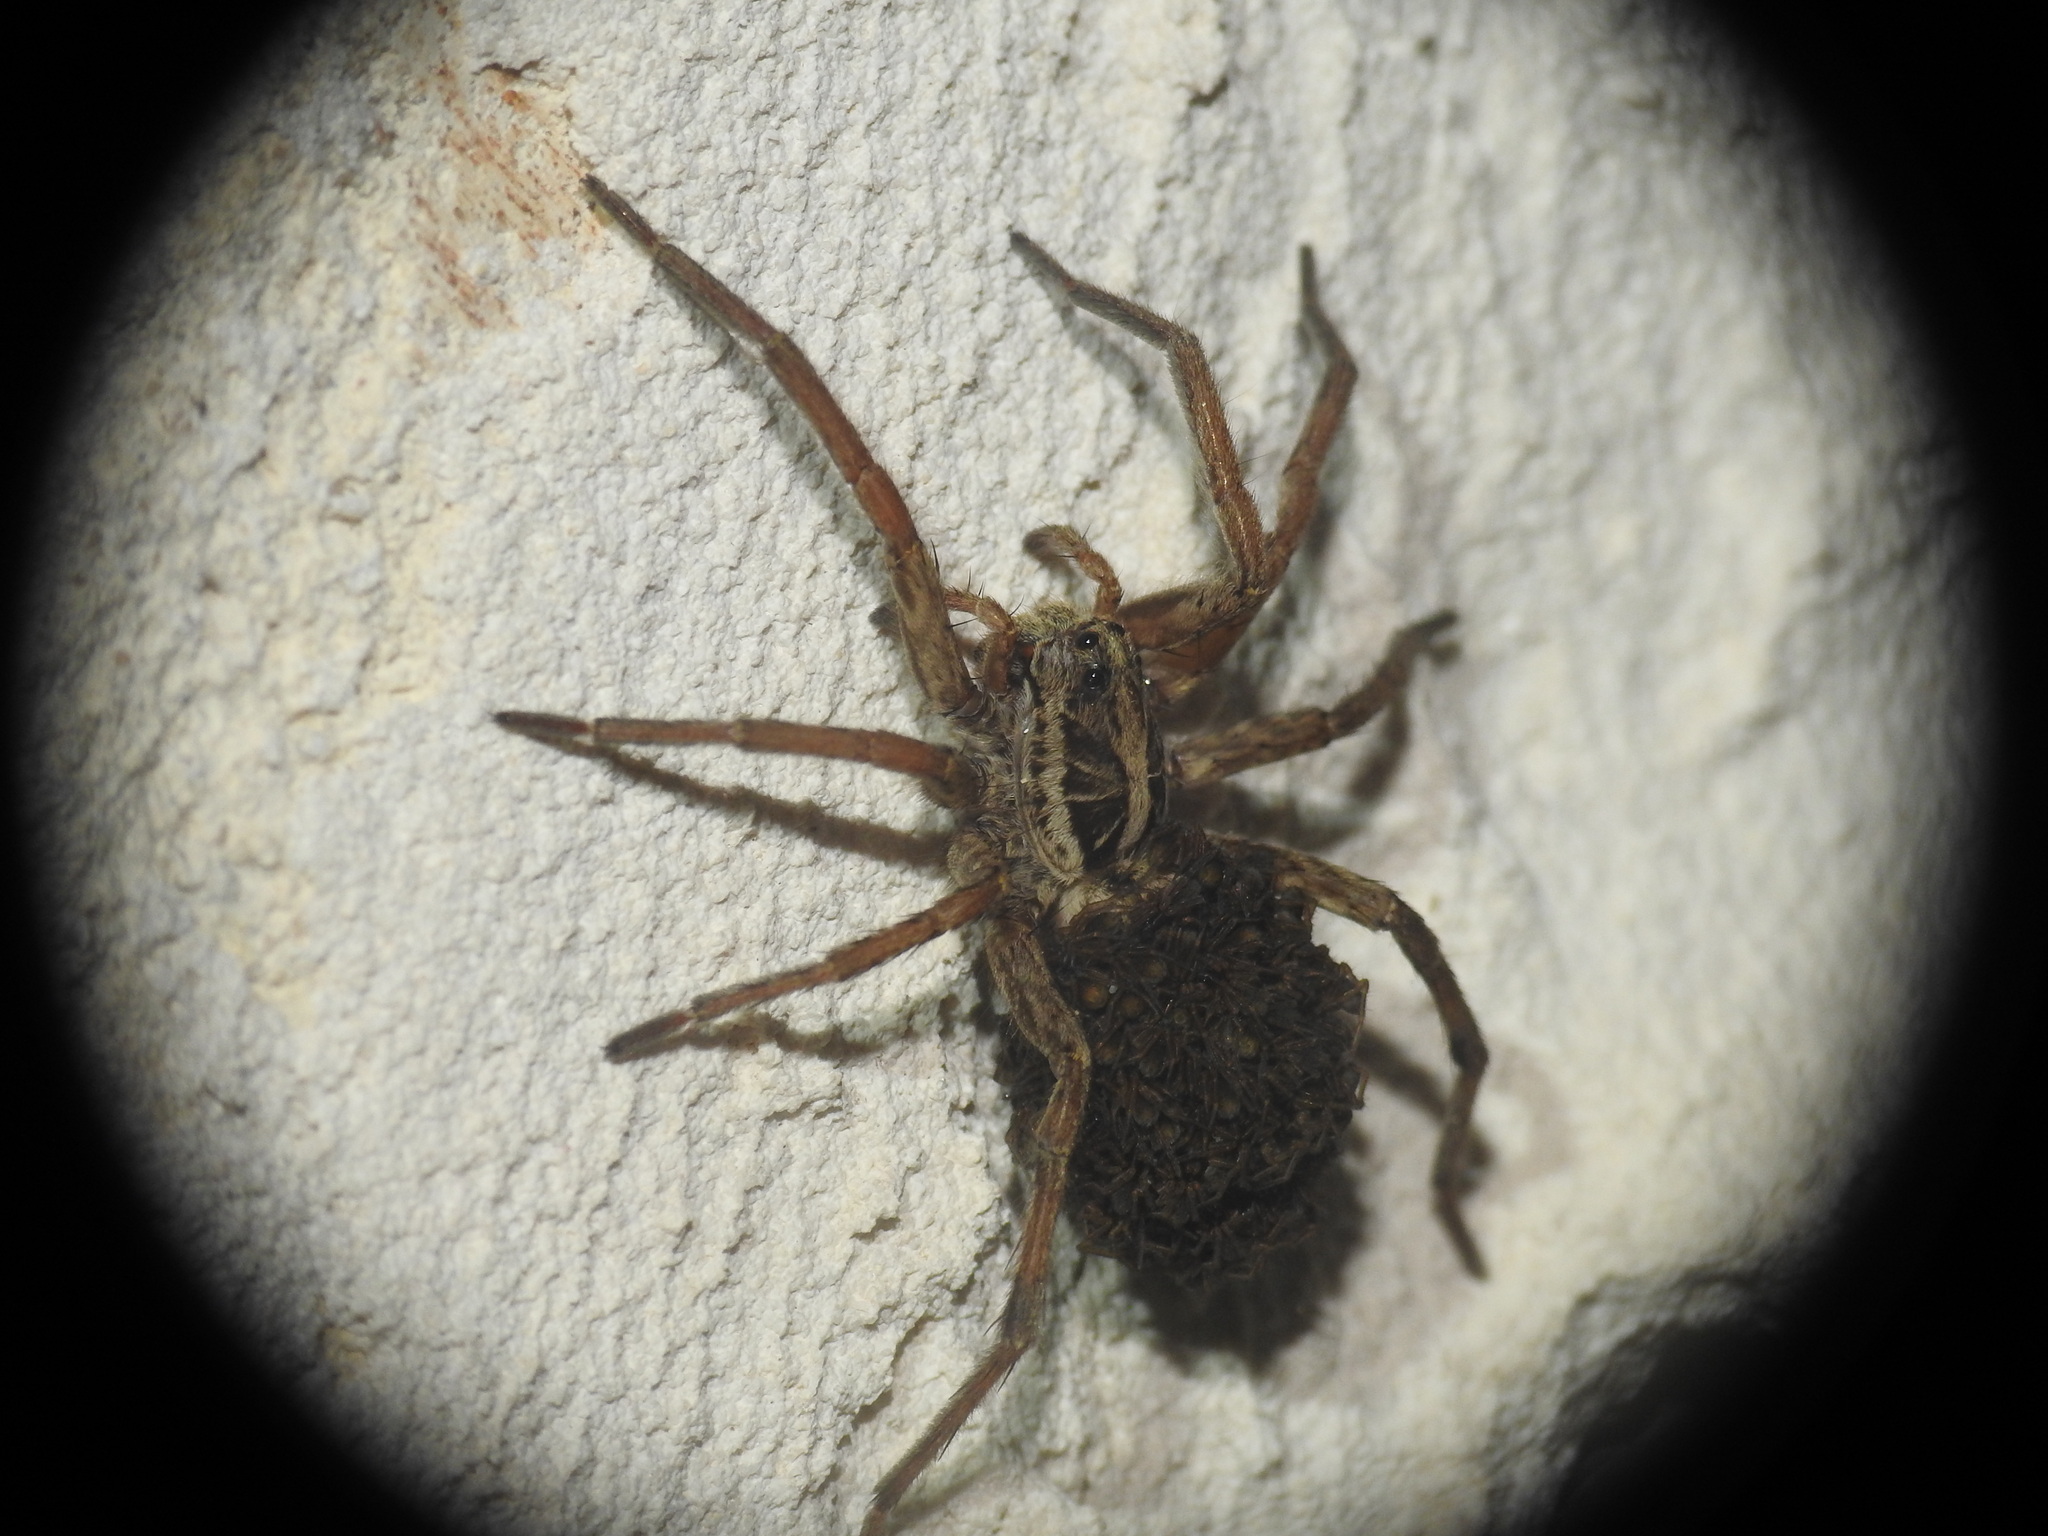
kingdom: Animalia
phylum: Arthropoda
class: Arachnida
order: Araneae
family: Lycosidae
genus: Hogna
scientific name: Hogna radiata
